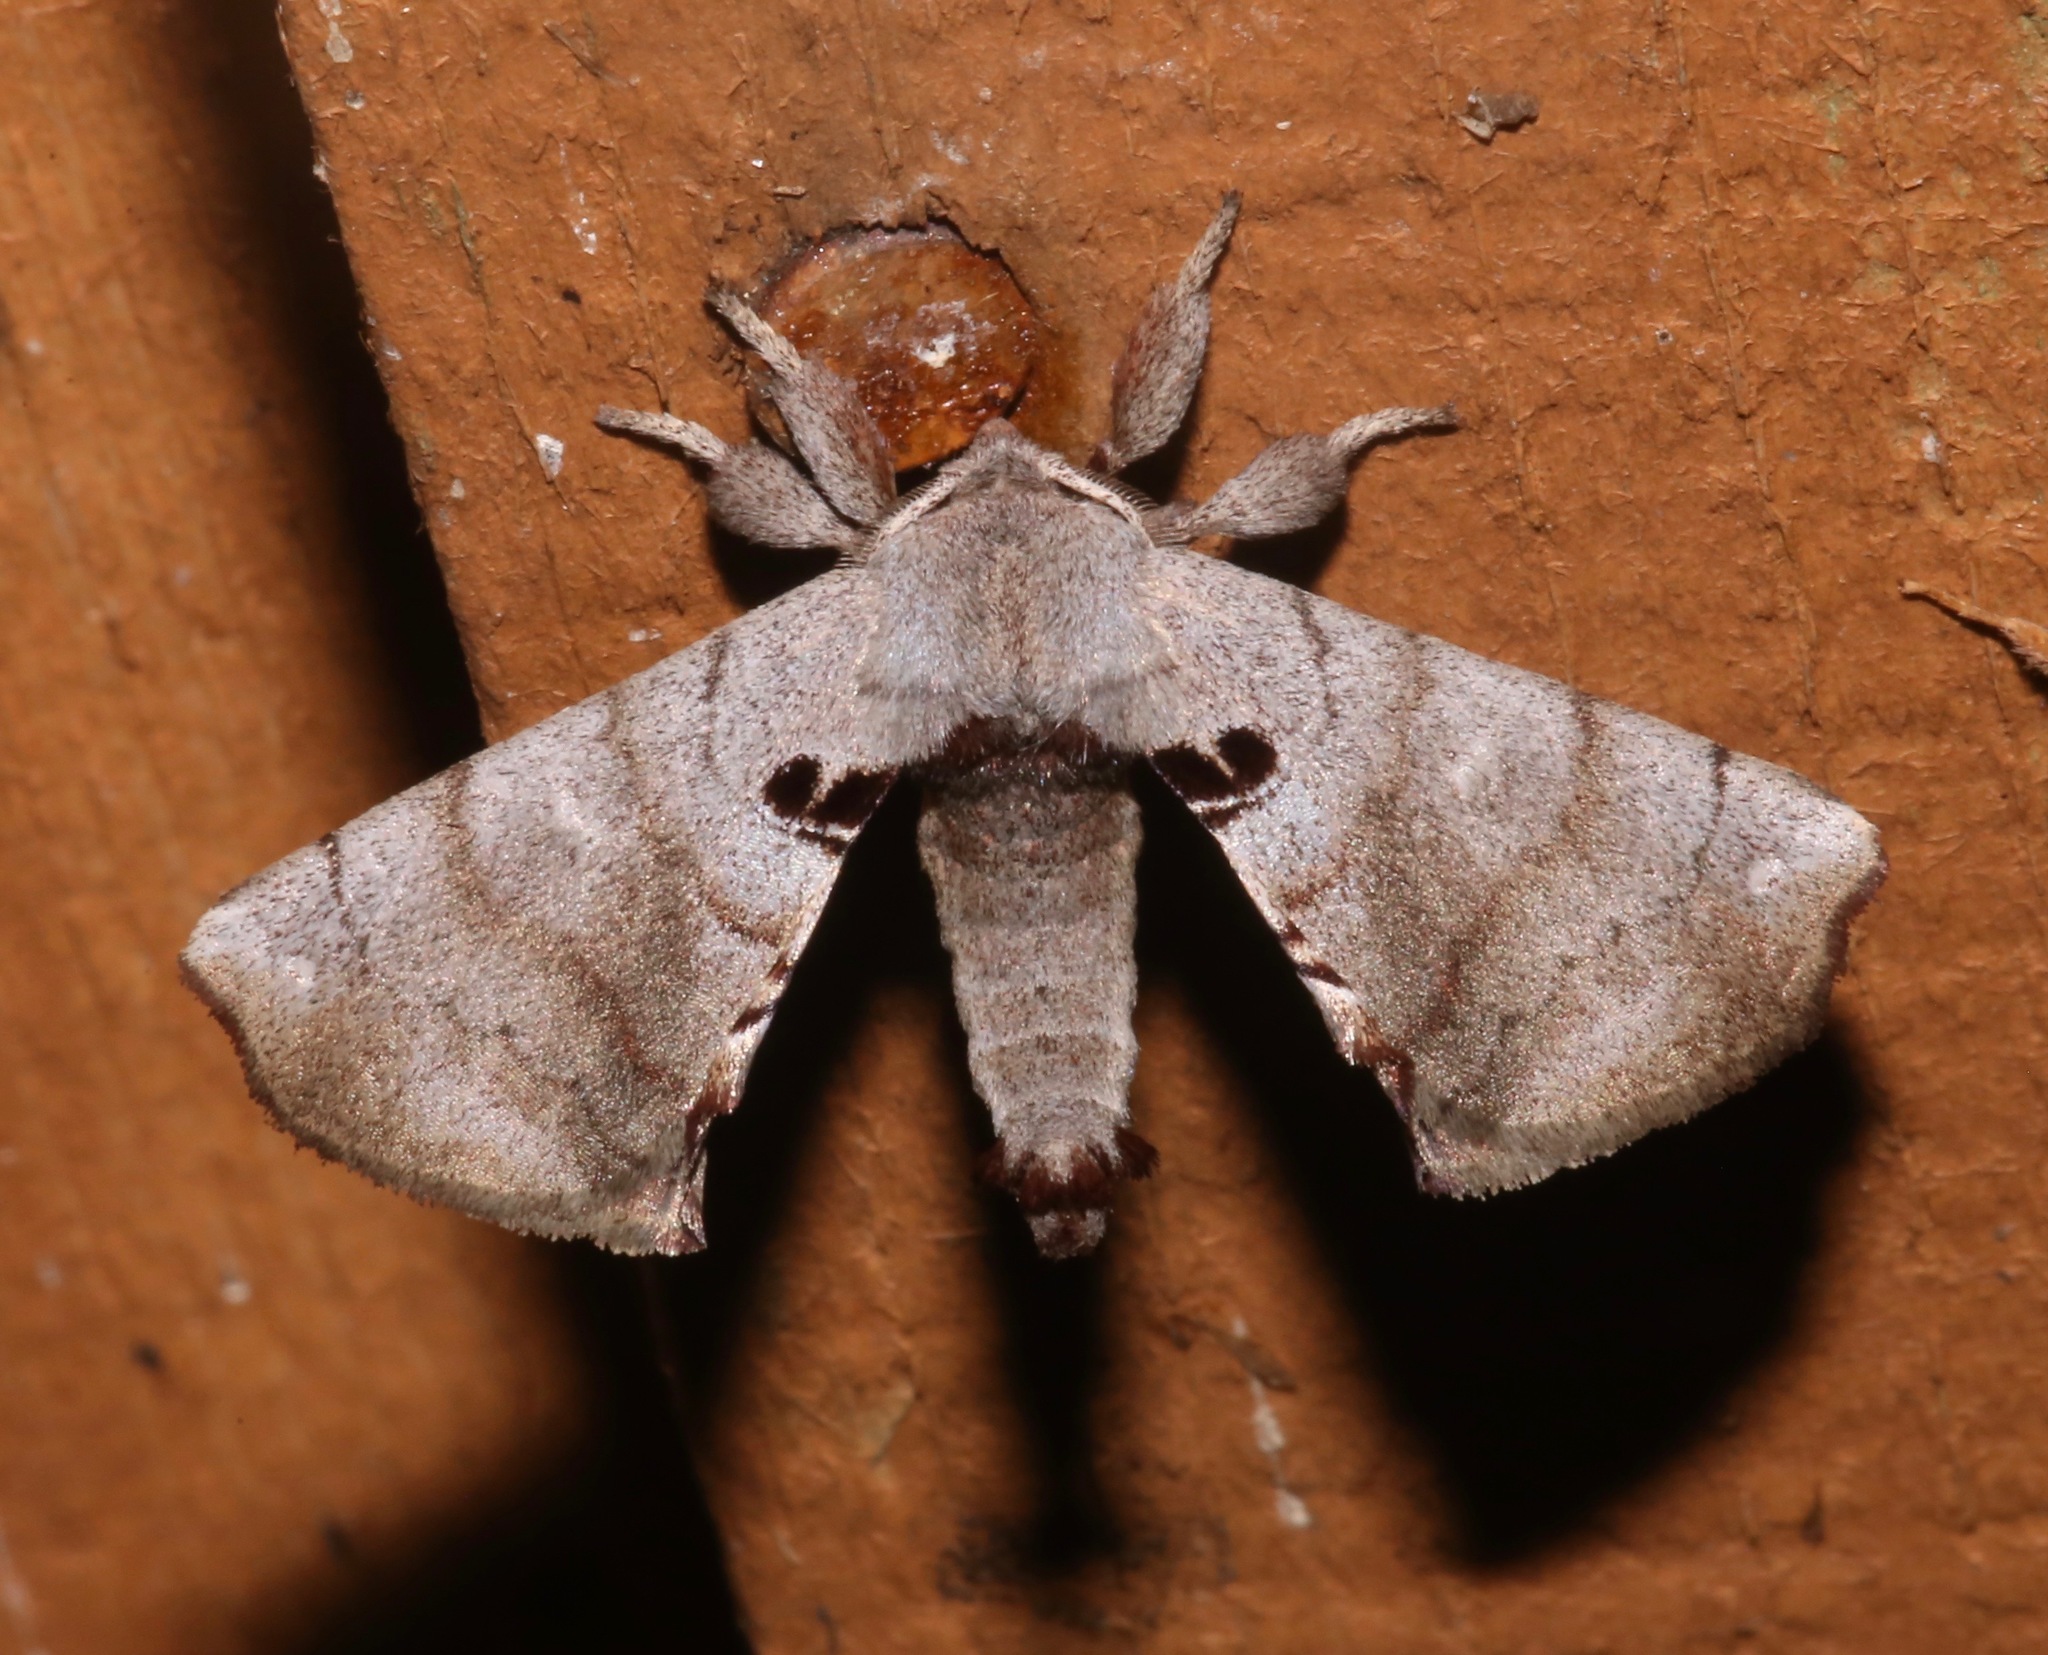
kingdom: Animalia
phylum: Arthropoda
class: Insecta
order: Lepidoptera
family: Apatelodidae
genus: Hygrochroa
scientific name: Hygrochroa Apatelodes torrefacta
